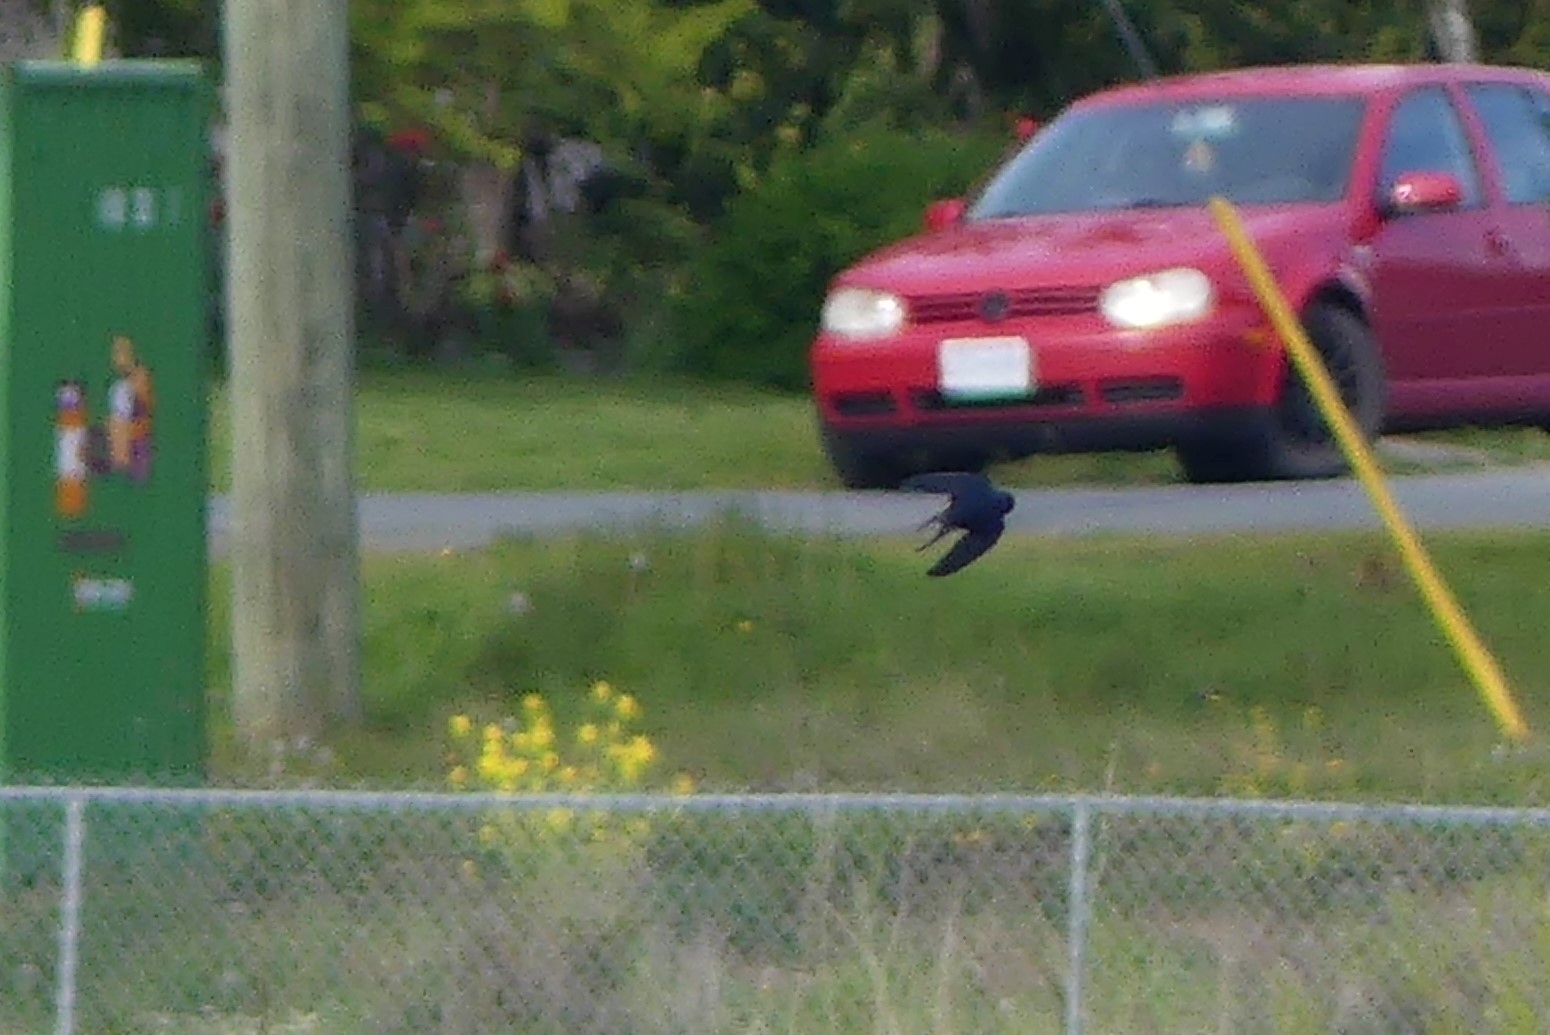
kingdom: Animalia
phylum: Chordata
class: Aves
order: Passeriformes
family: Hirundinidae
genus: Hirundo
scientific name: Hirundo rustica
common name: Barn swallow
